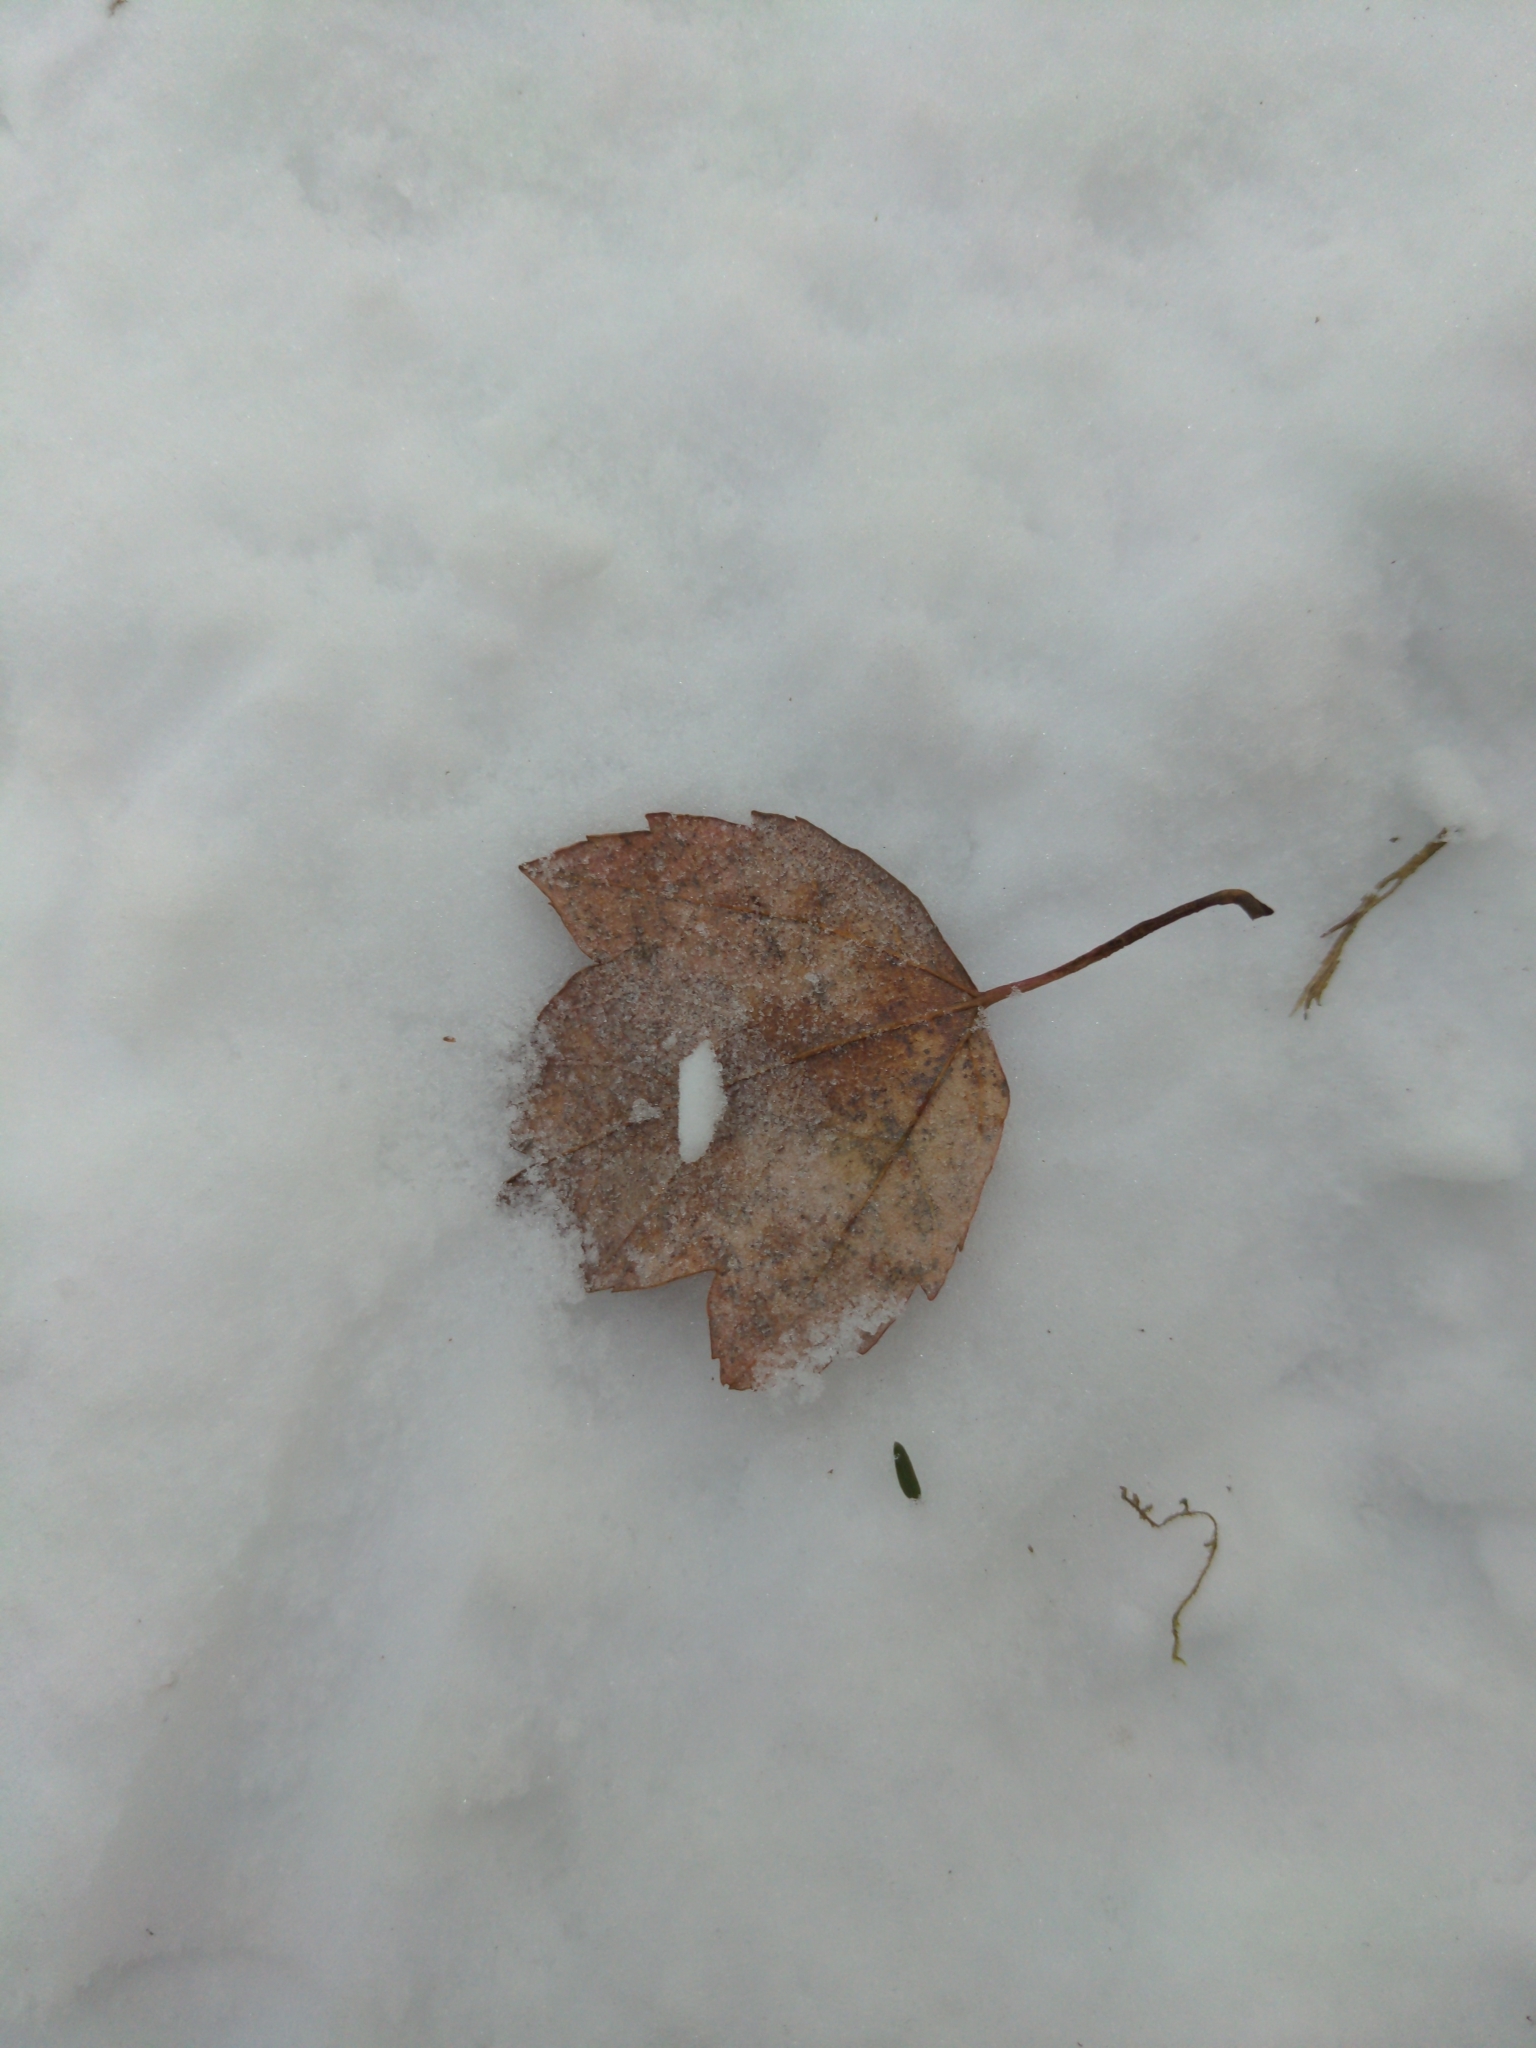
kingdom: Plantae
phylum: Tracheophyta
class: Magnoliopsida
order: Sapindales
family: Sapindaceae
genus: Acer
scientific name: Acer rubrum
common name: Red maple
